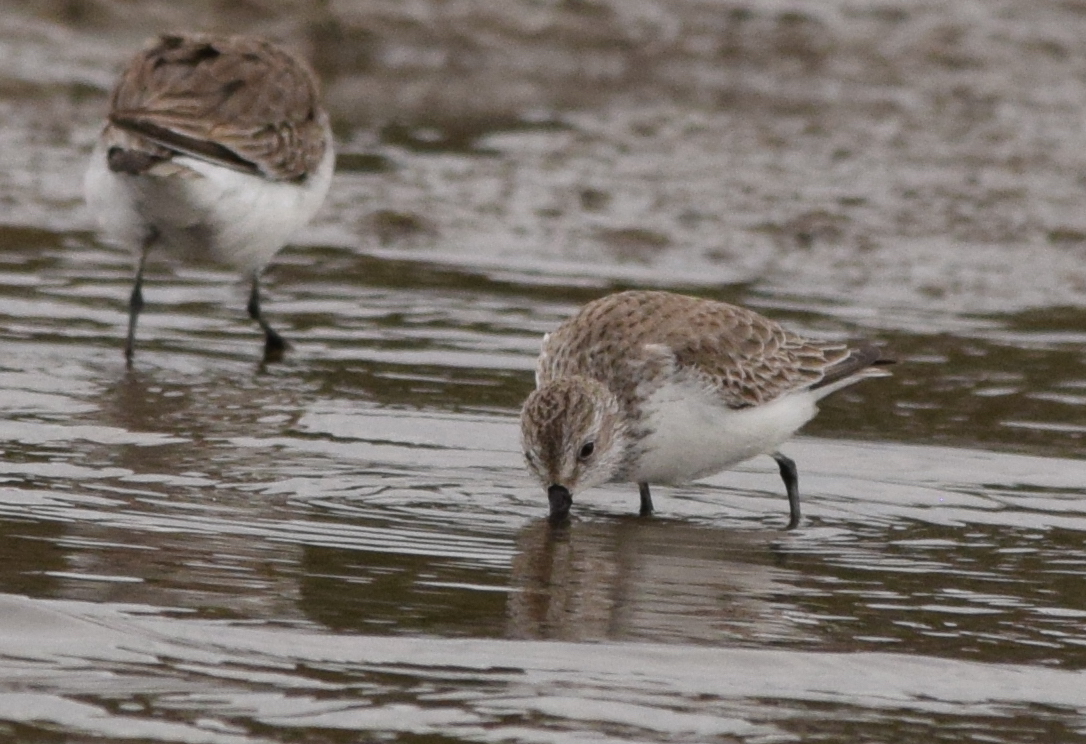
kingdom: Animalia
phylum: Chordata
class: Aves
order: Charadriiformes
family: Scolopacidae
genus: Calidris
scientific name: Calidris mauri
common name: Western sandpiper
